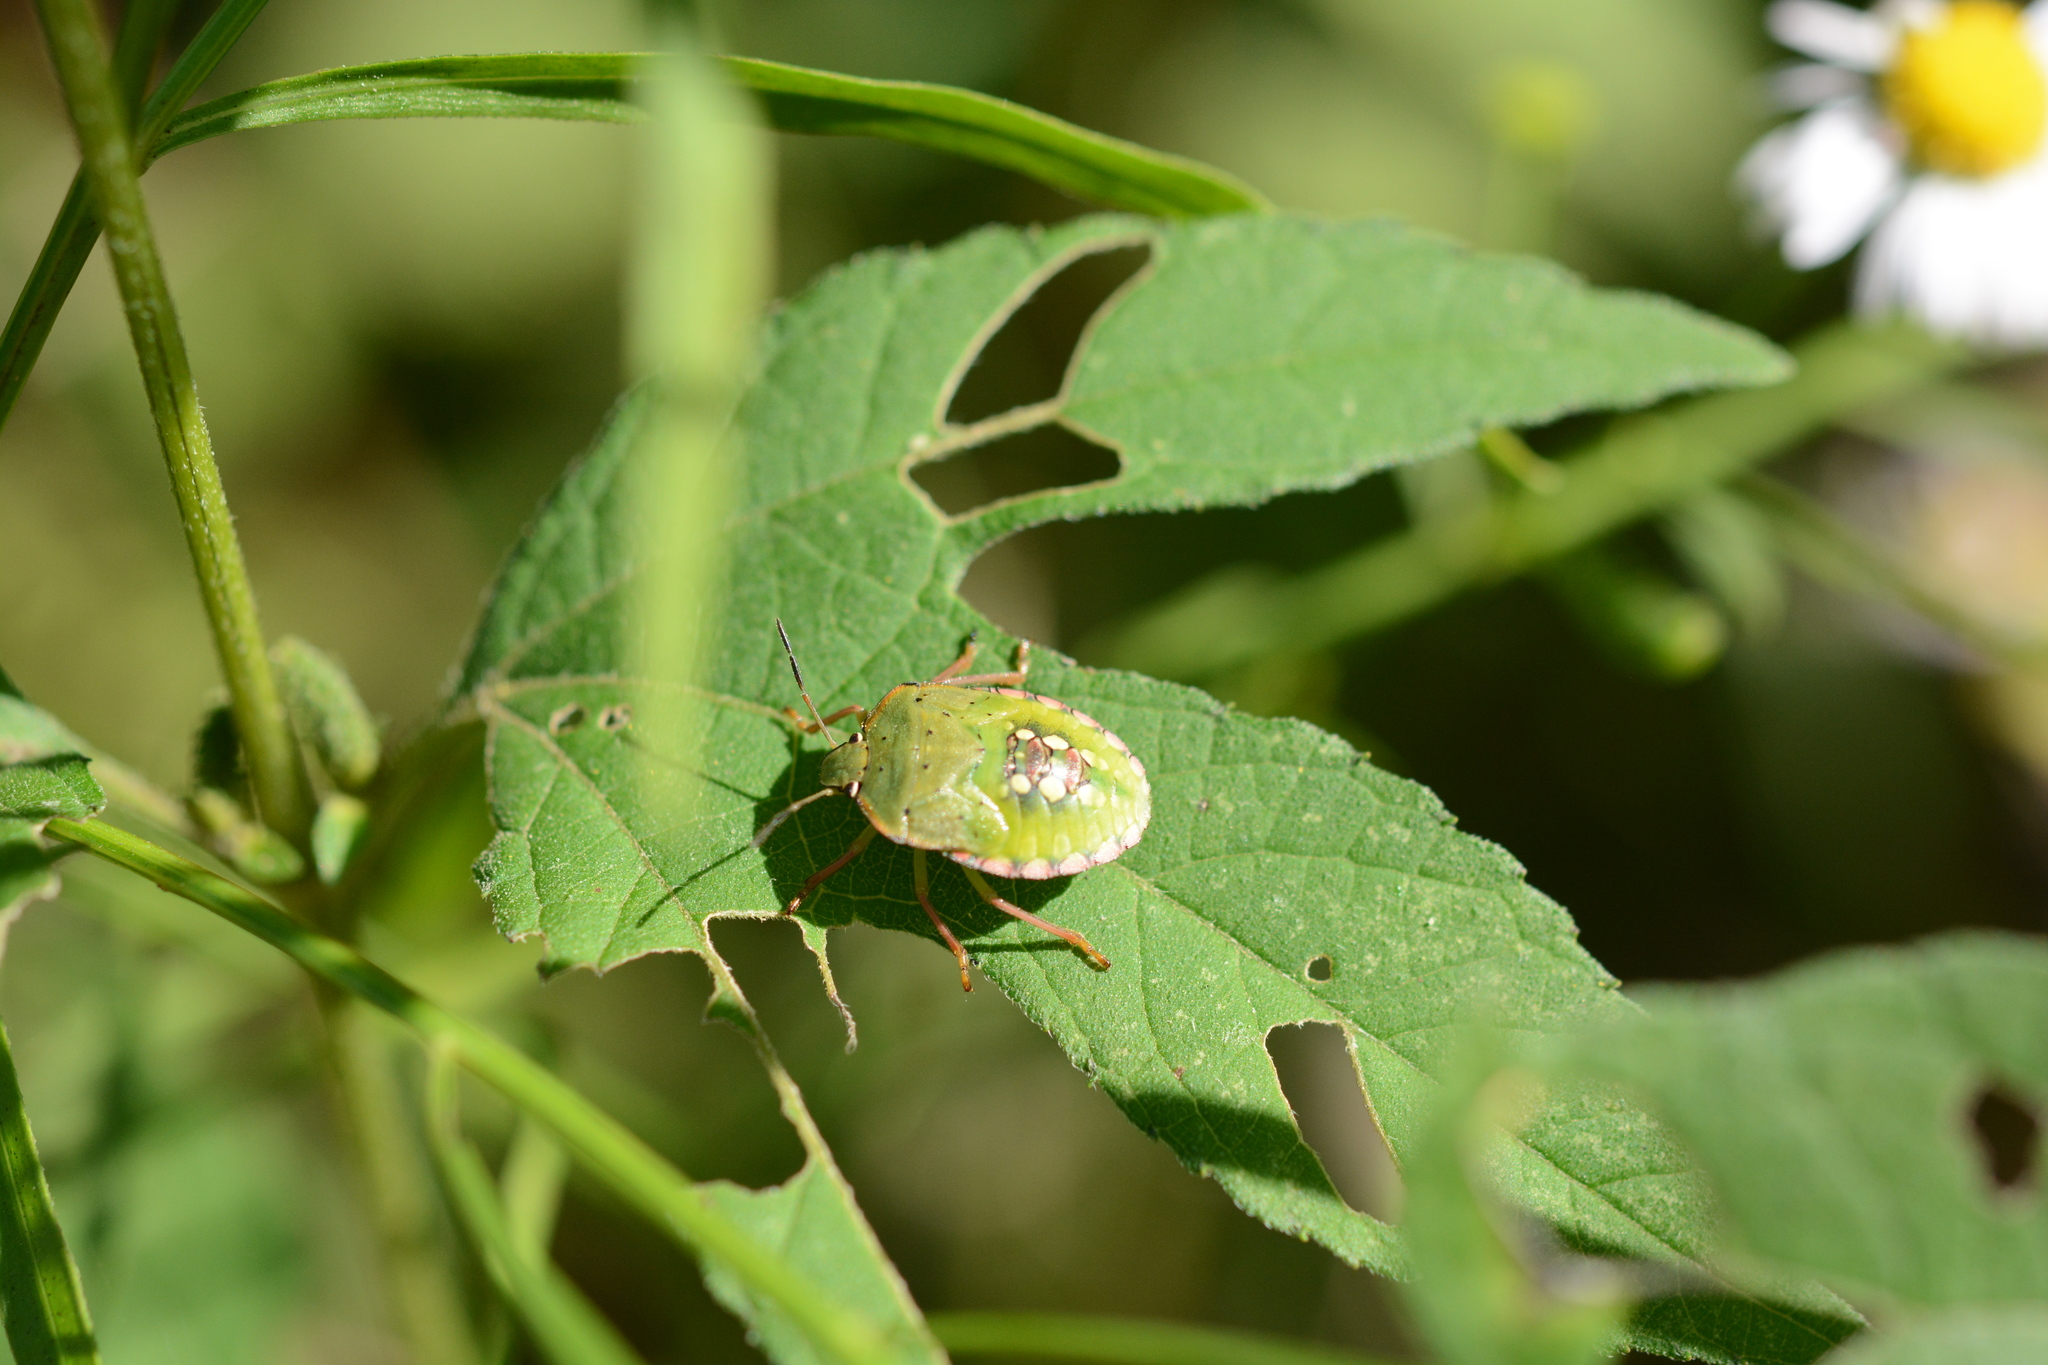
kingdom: Animalia
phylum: Arthropoda
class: Insecta
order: Hemiptera
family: Pentatomidae
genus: Nezara
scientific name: Nezara viridula
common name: Southern green stink bug
